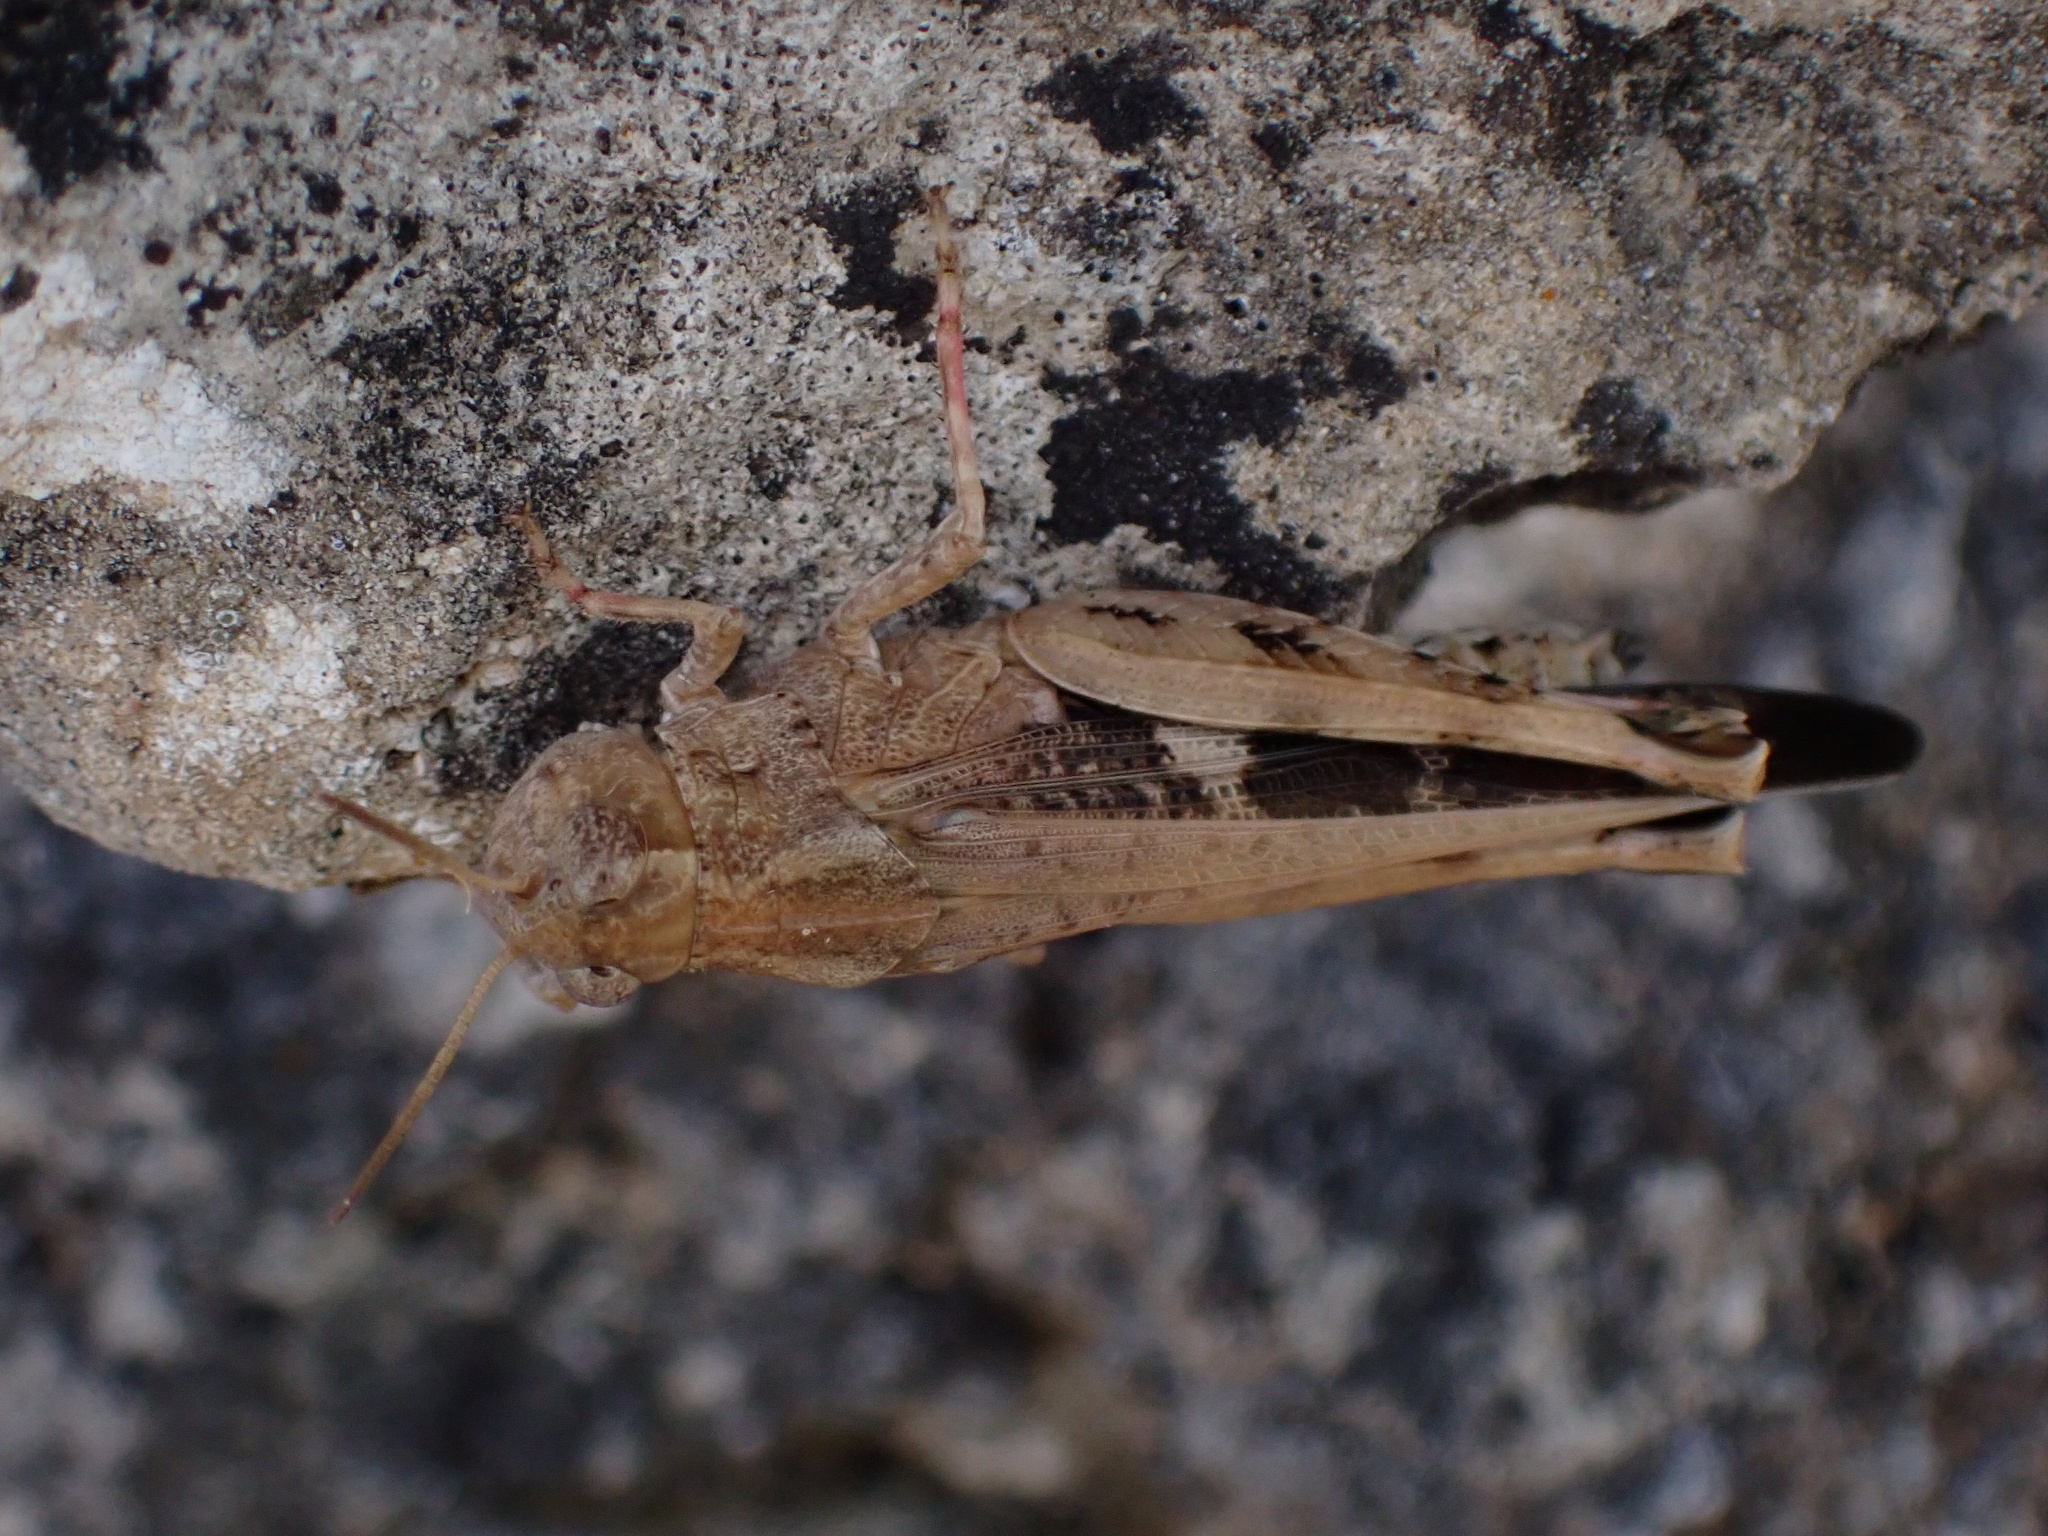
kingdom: Animalia
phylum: Arthropoda
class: Insecta
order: Orthoptera
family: Acrididae
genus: Aiolopus
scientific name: Aiolopus strepens
